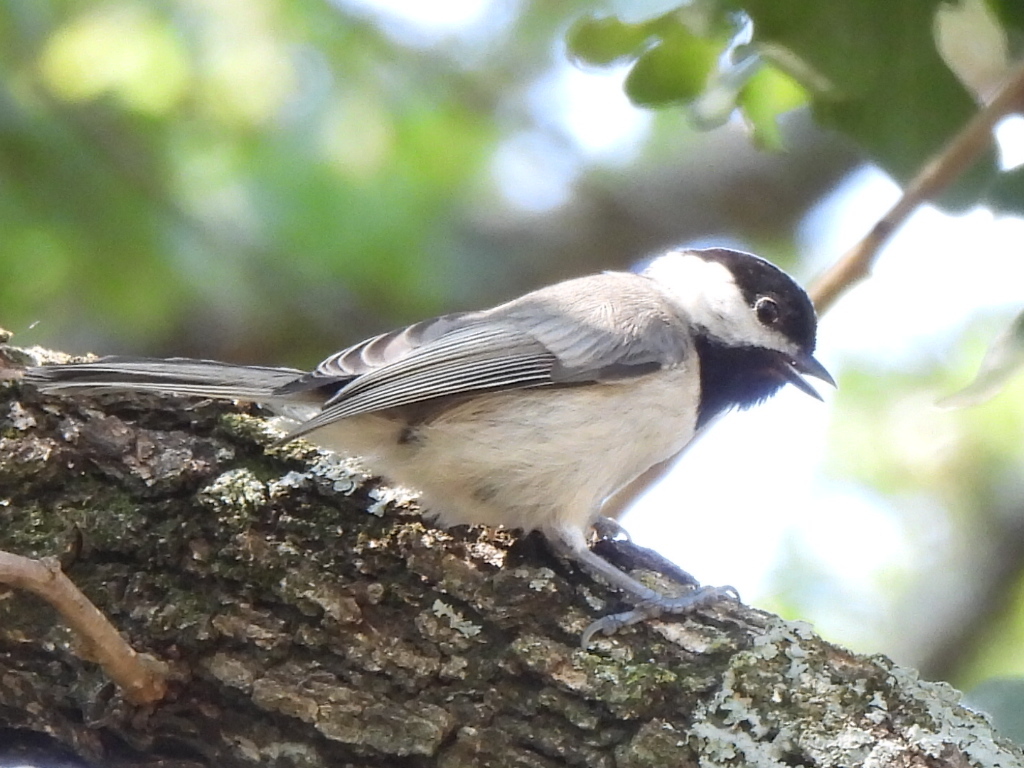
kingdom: Animalia
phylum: Chordata
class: Aves
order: Passeriformes
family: Paridae
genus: Poecile
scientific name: Poecile carolinensis
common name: Carolina chickadee
